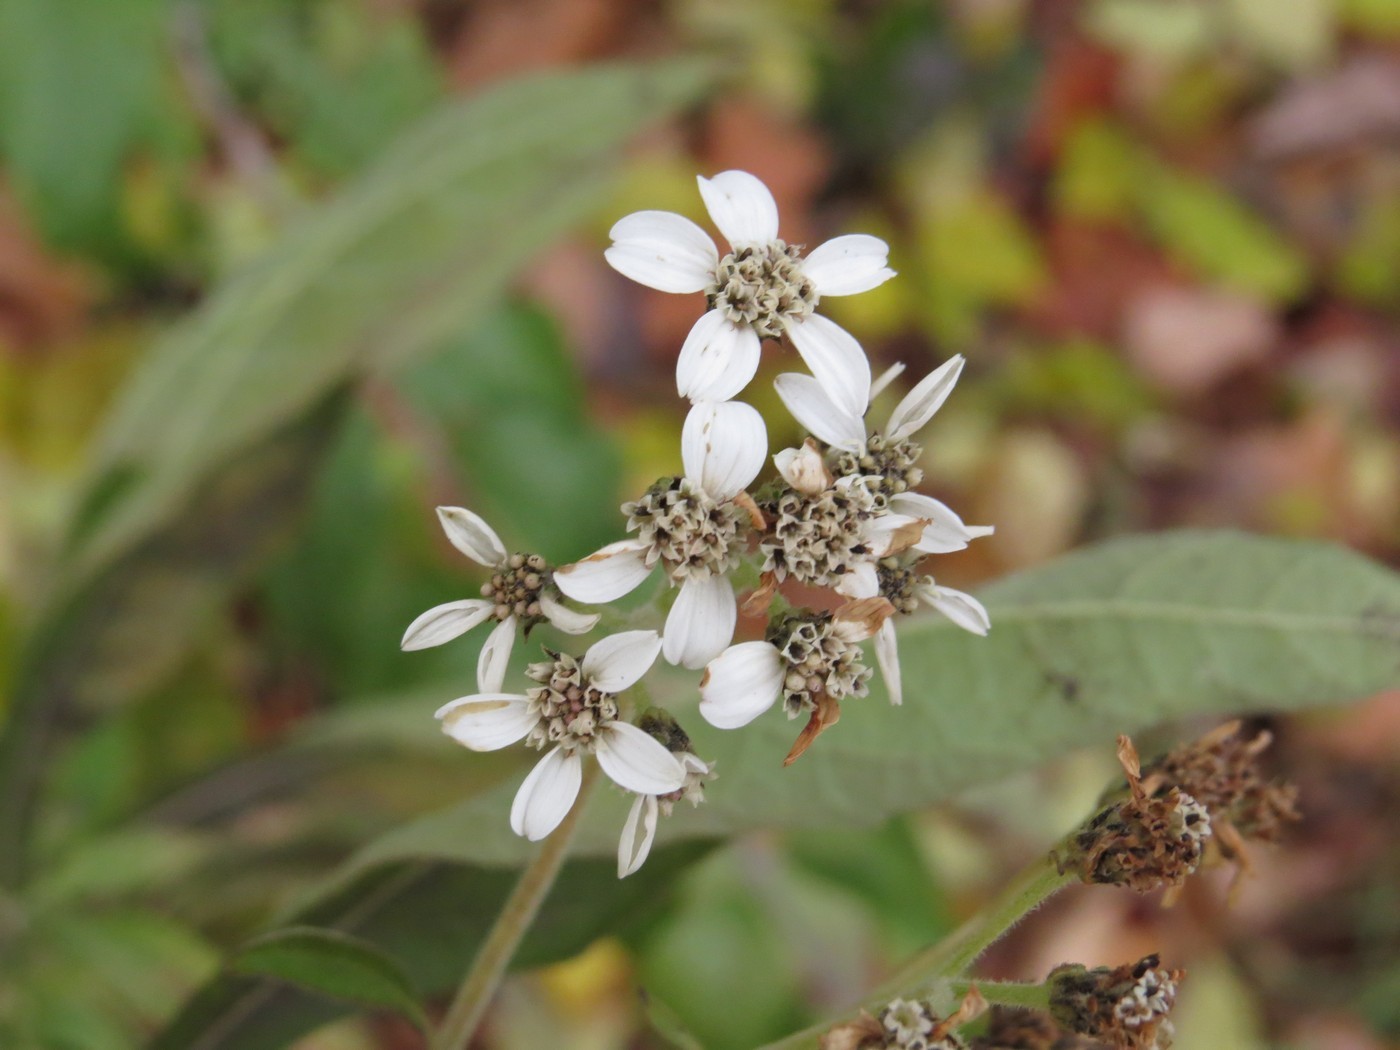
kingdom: Plantae
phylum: Tracheophyta
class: Magnoliopsida
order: Asterales
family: Asteraceae
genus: Verbesina
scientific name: Verbesina virginica
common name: Frostweed
